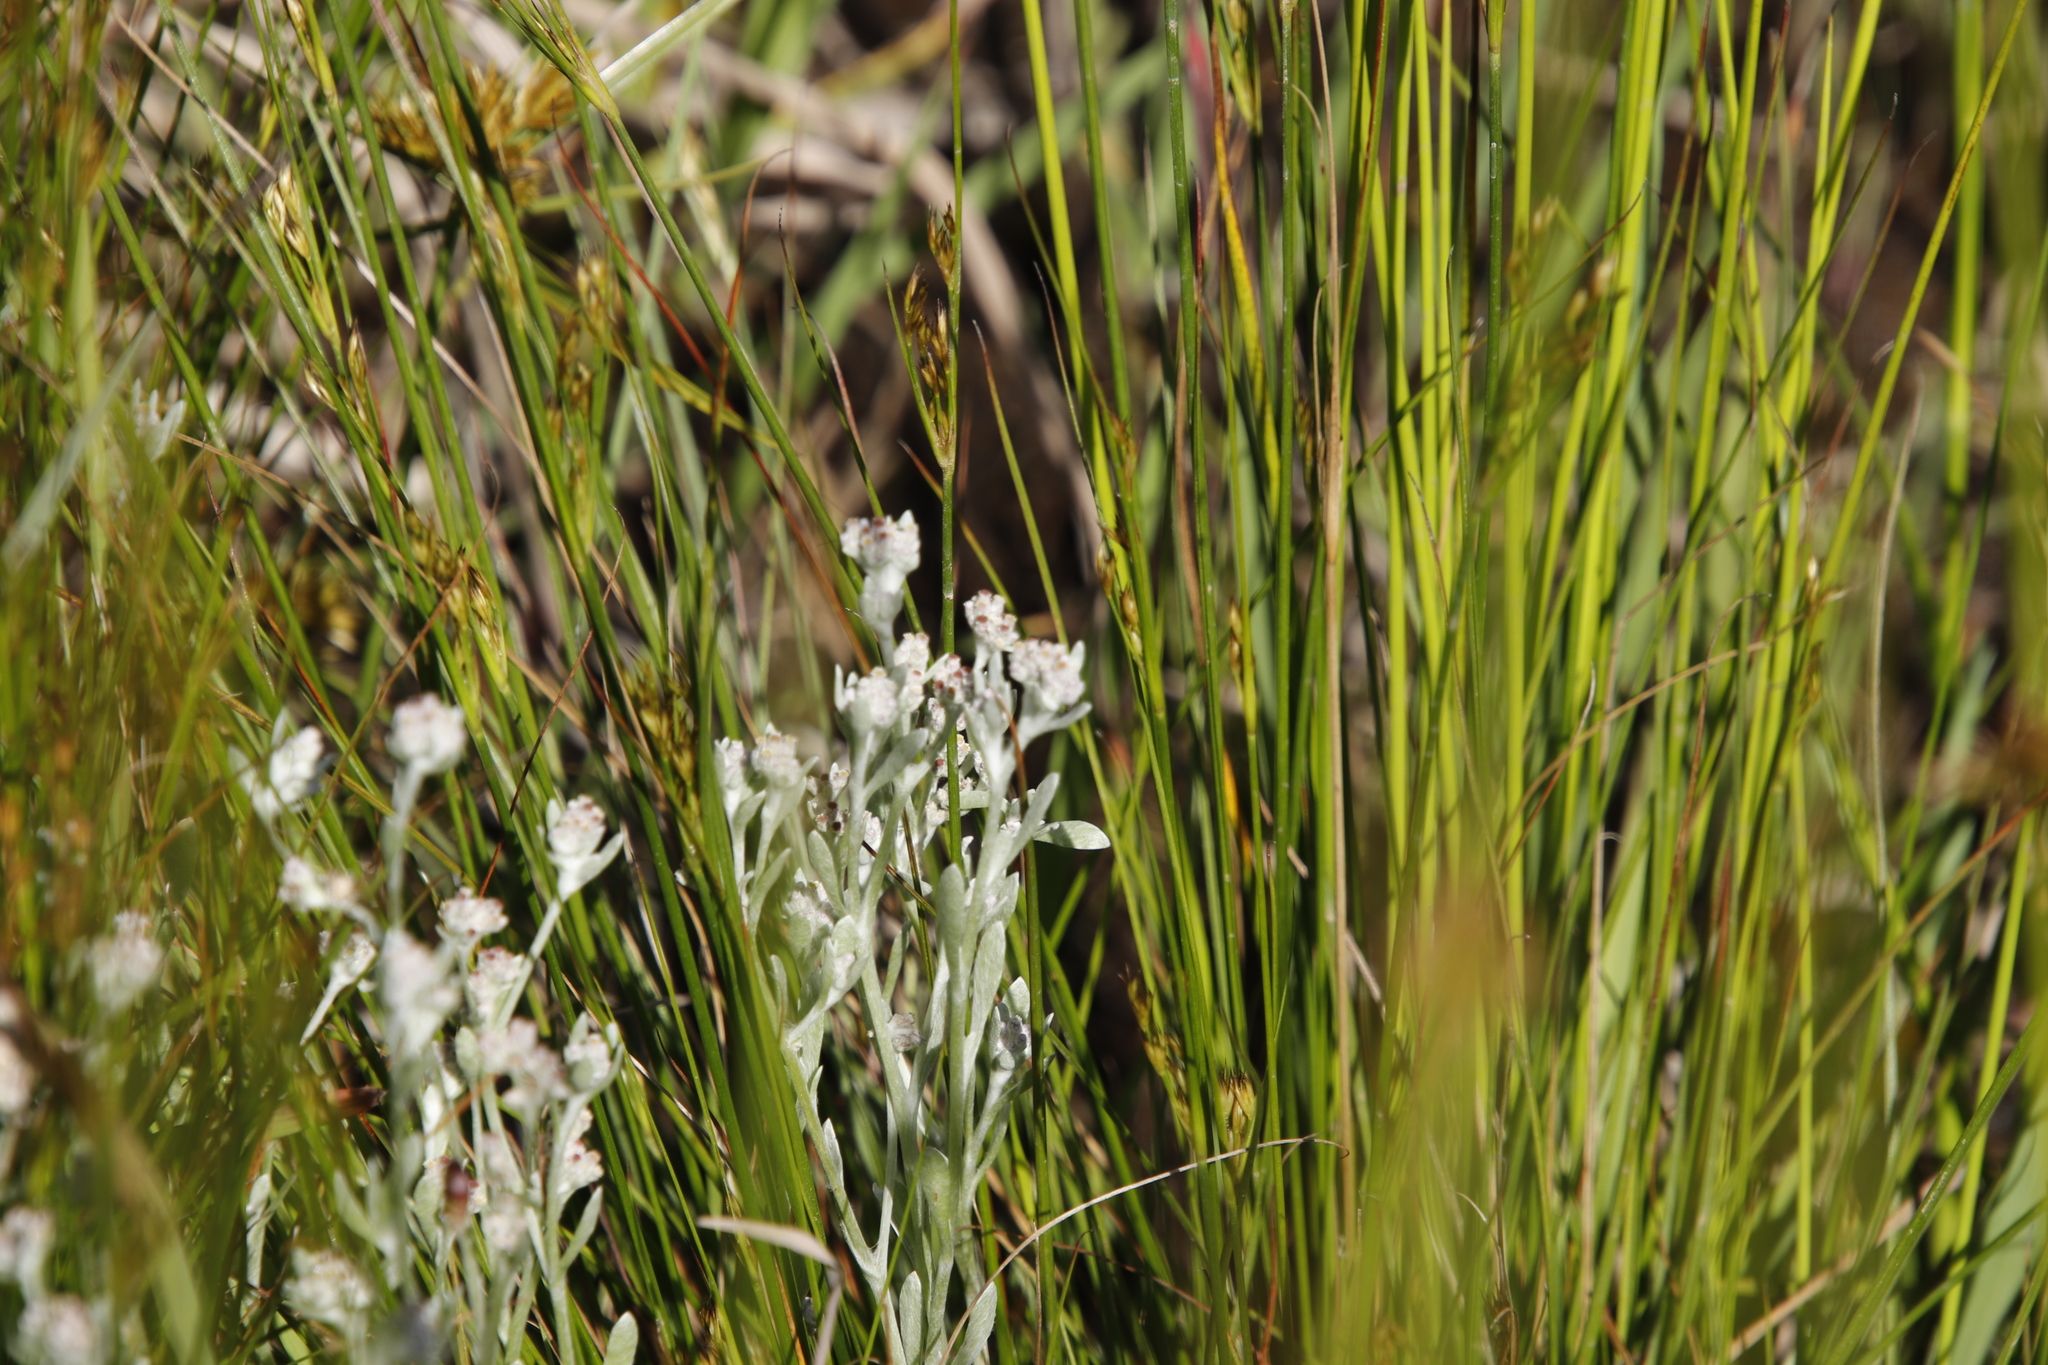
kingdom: Plantae
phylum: Tracheophyta
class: Magnoliopsida
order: Asterales
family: Asteraceae
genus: Vellereophyton
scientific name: Vellereophyton dealbatum
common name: White-cudweed
